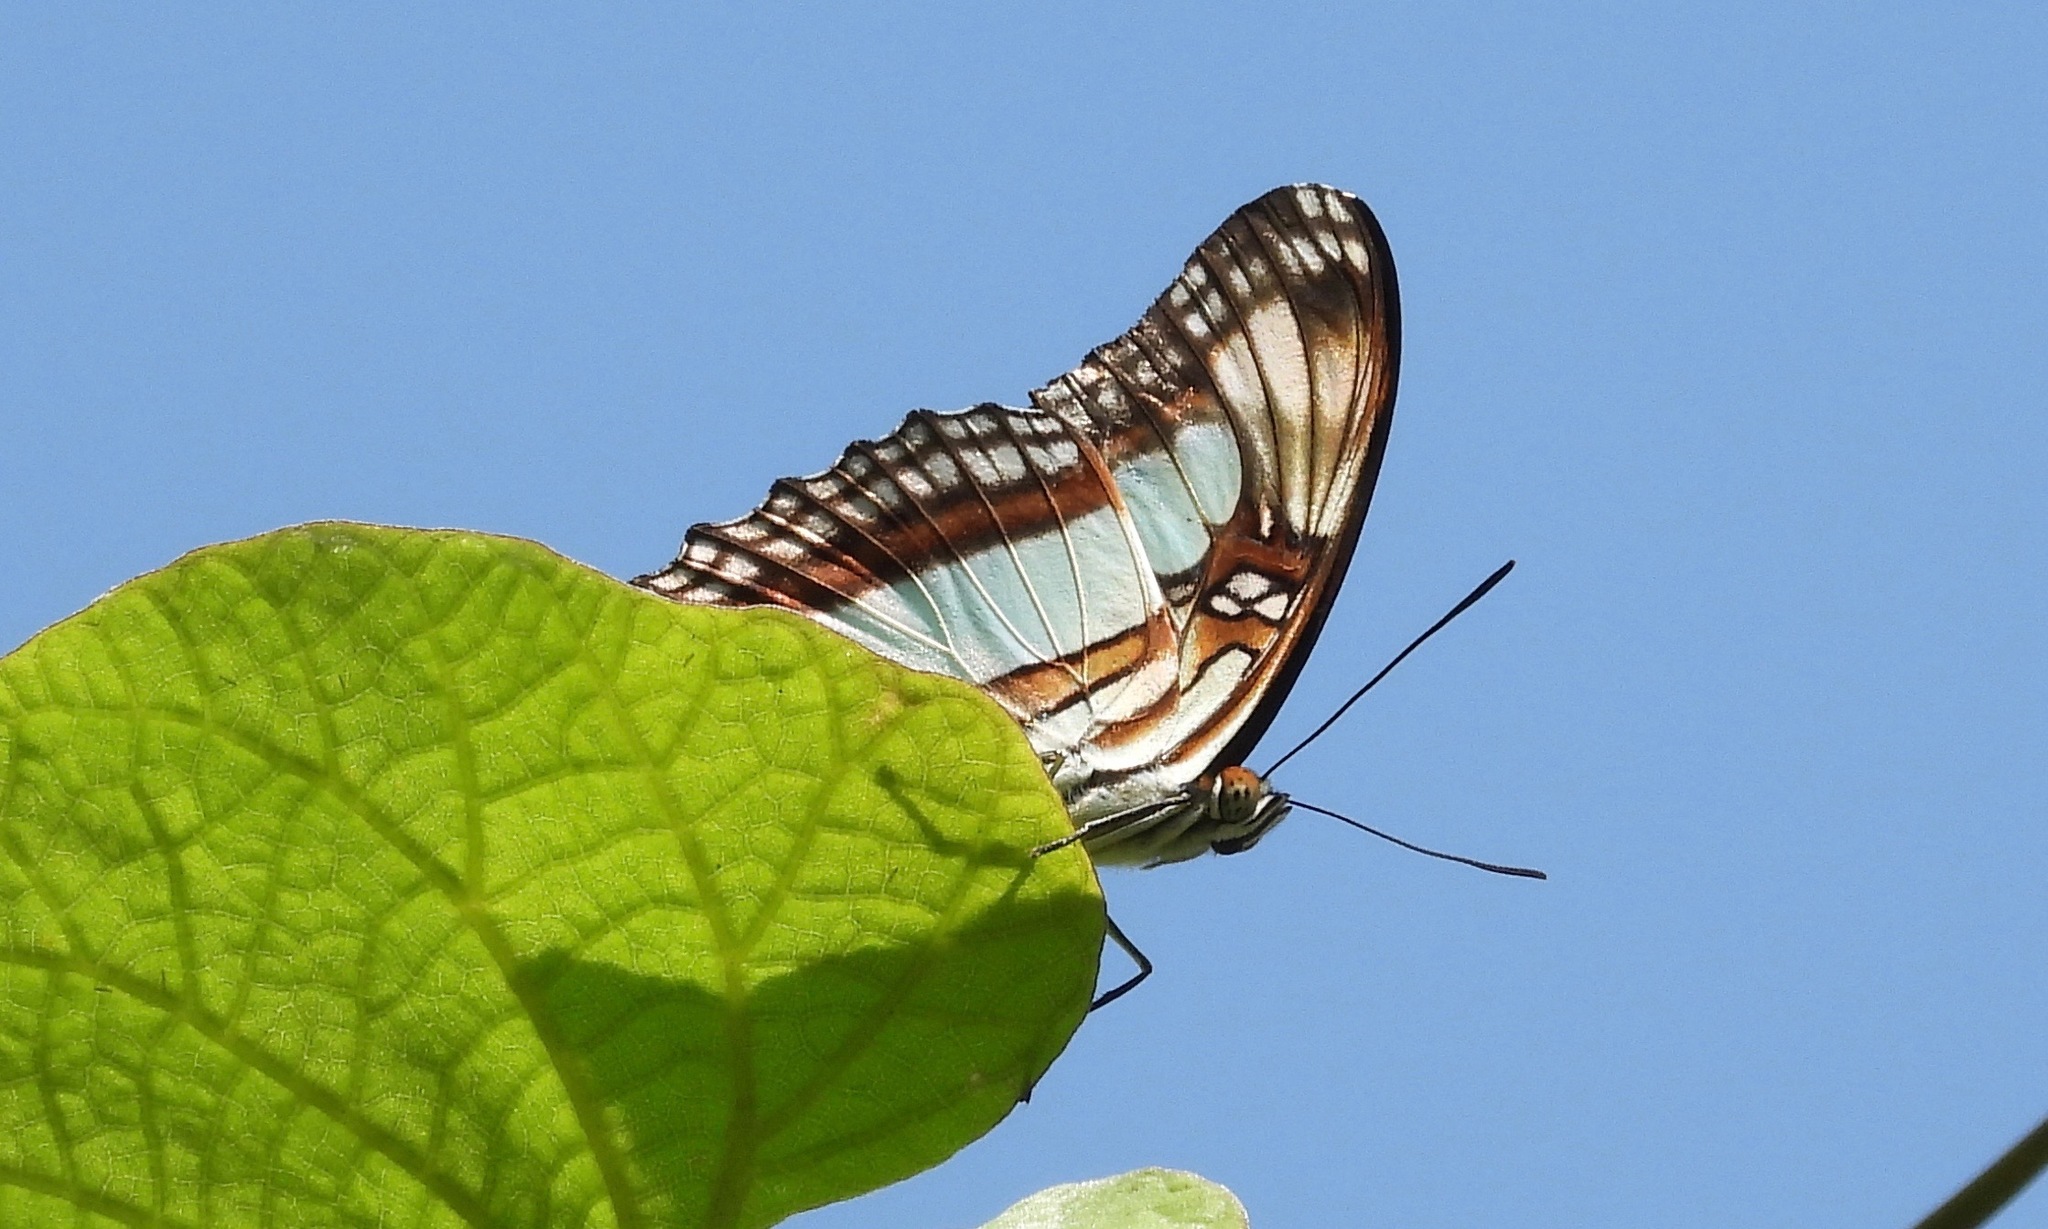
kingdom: Animalia
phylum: Arthropoda
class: Insecta
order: Lepidoptera
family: Nymphalidae
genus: Limenitis
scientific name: Limenitis paraena
